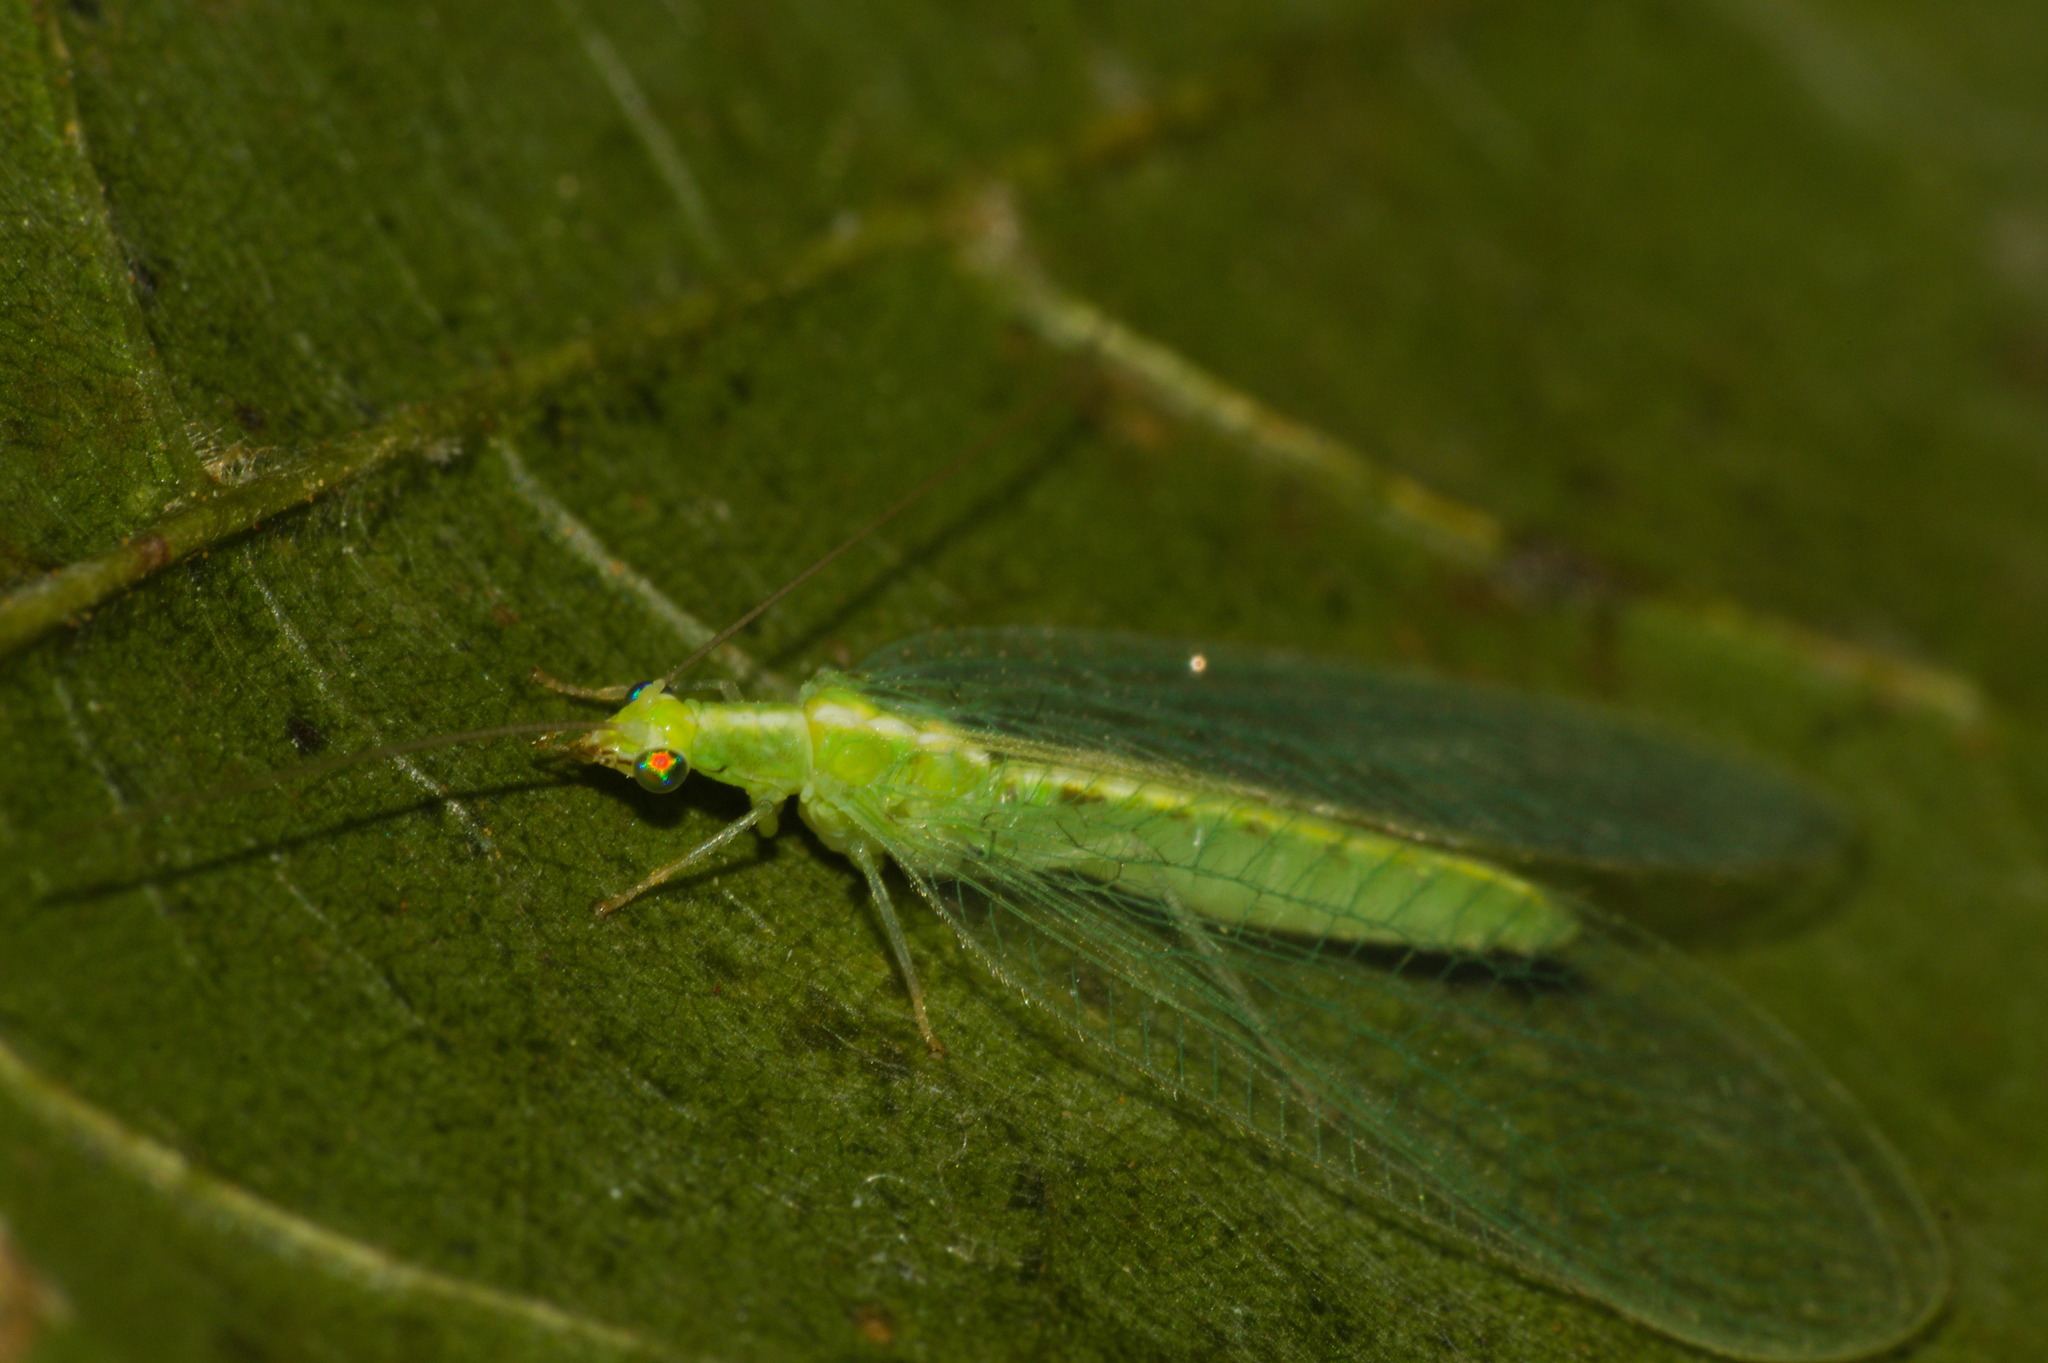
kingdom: Animalia
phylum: Arthropoda
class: Insecta
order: Neuroptera
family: Chrysopidae
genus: Chrysoperla
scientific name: Chrysoperla
